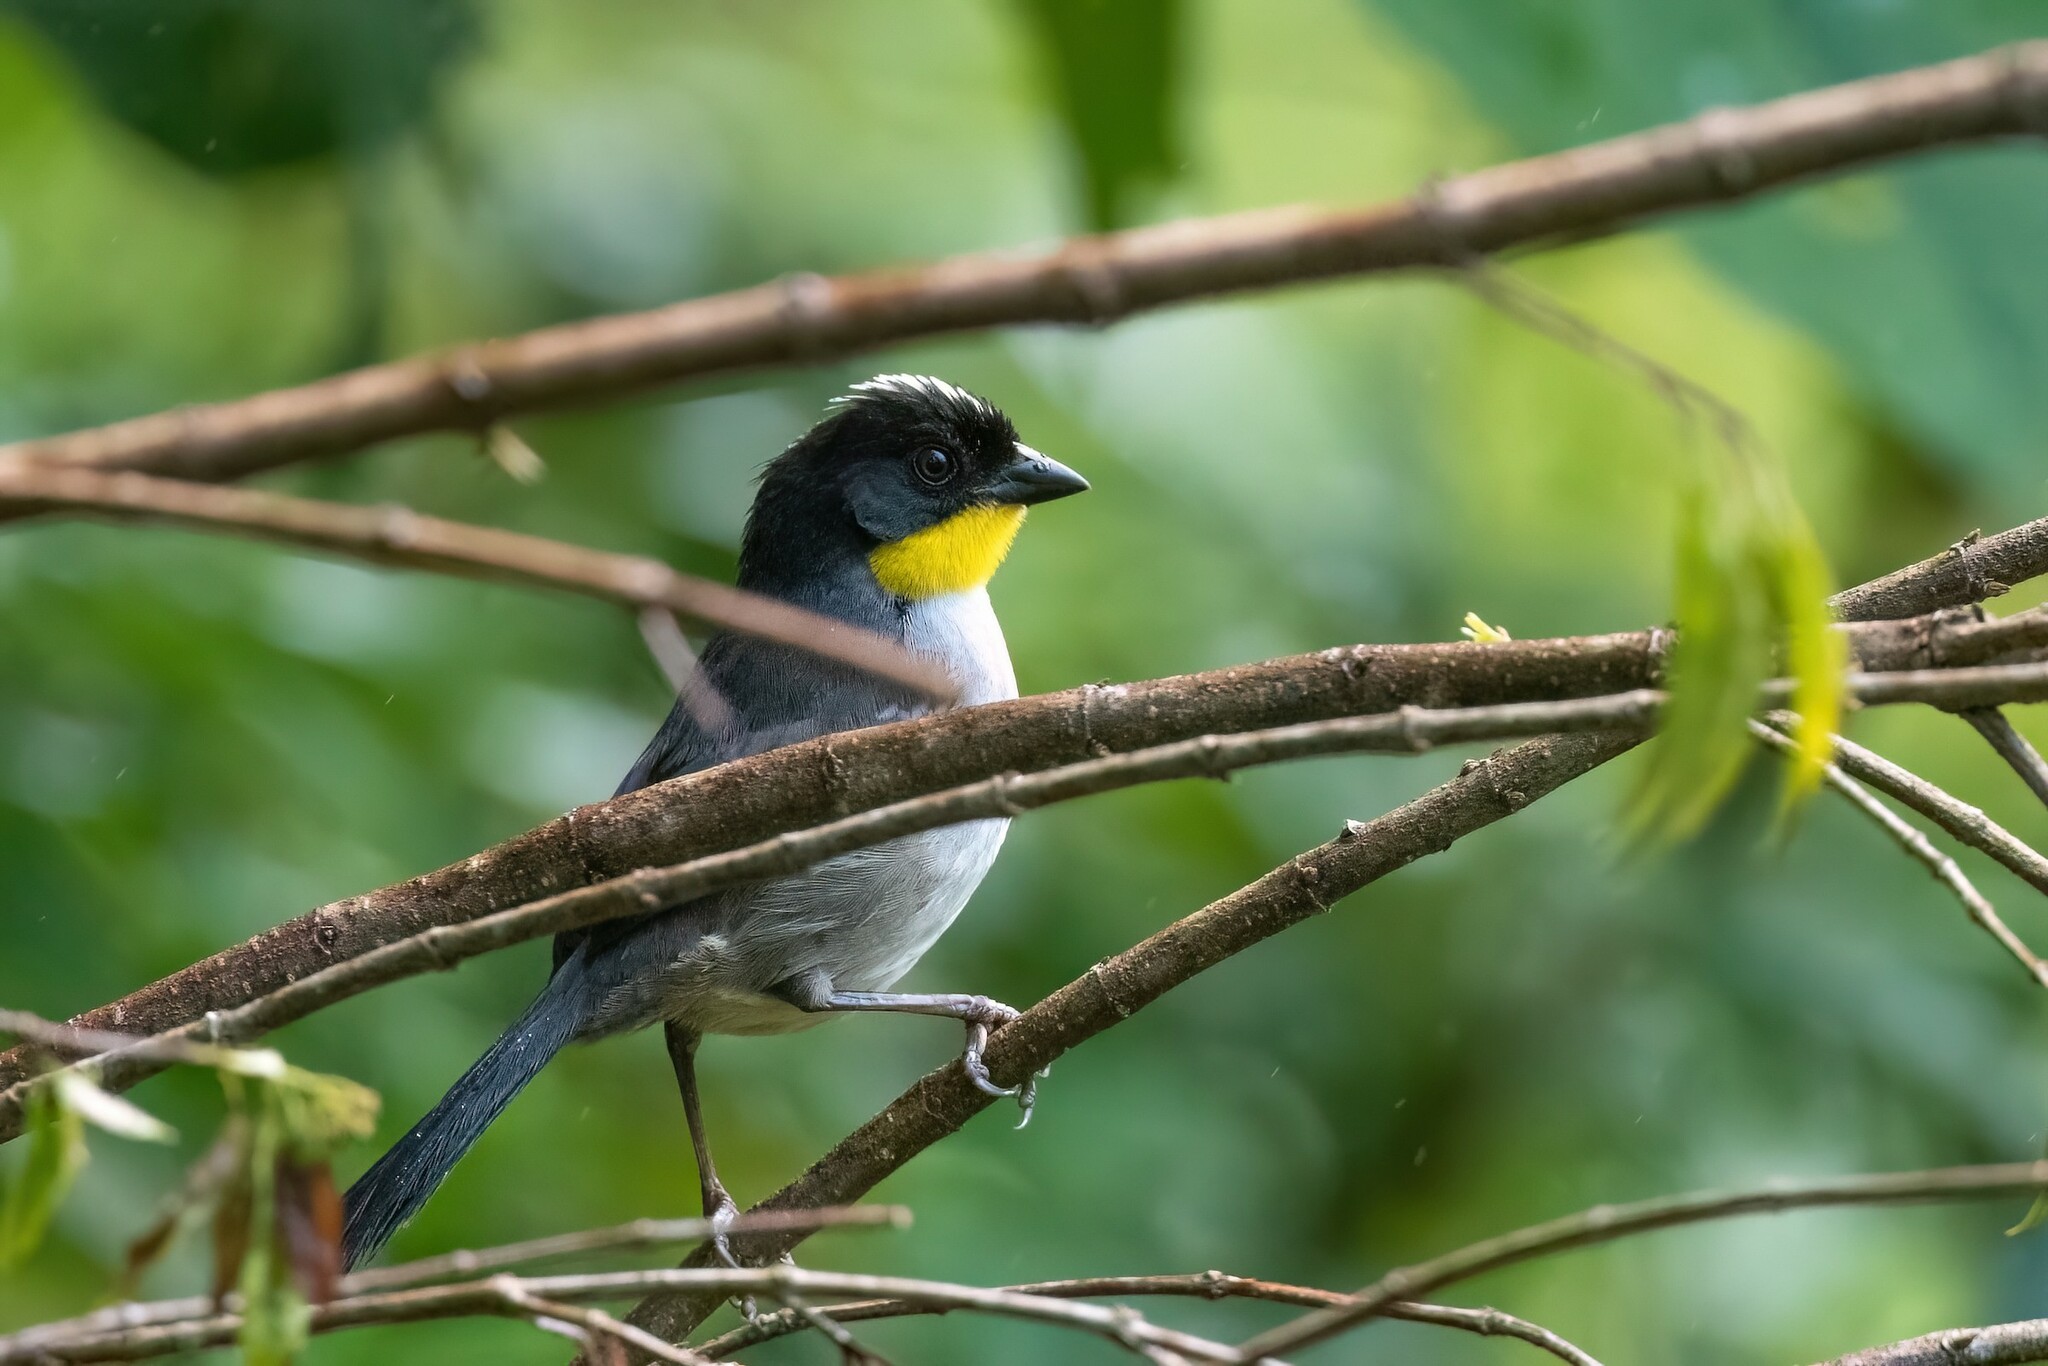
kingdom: Animalia
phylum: Chordata
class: Aves
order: Passeriformes
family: Passerellidae
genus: Atlapetes
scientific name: Atlapetes albinucha
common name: White-naped brush-finch
